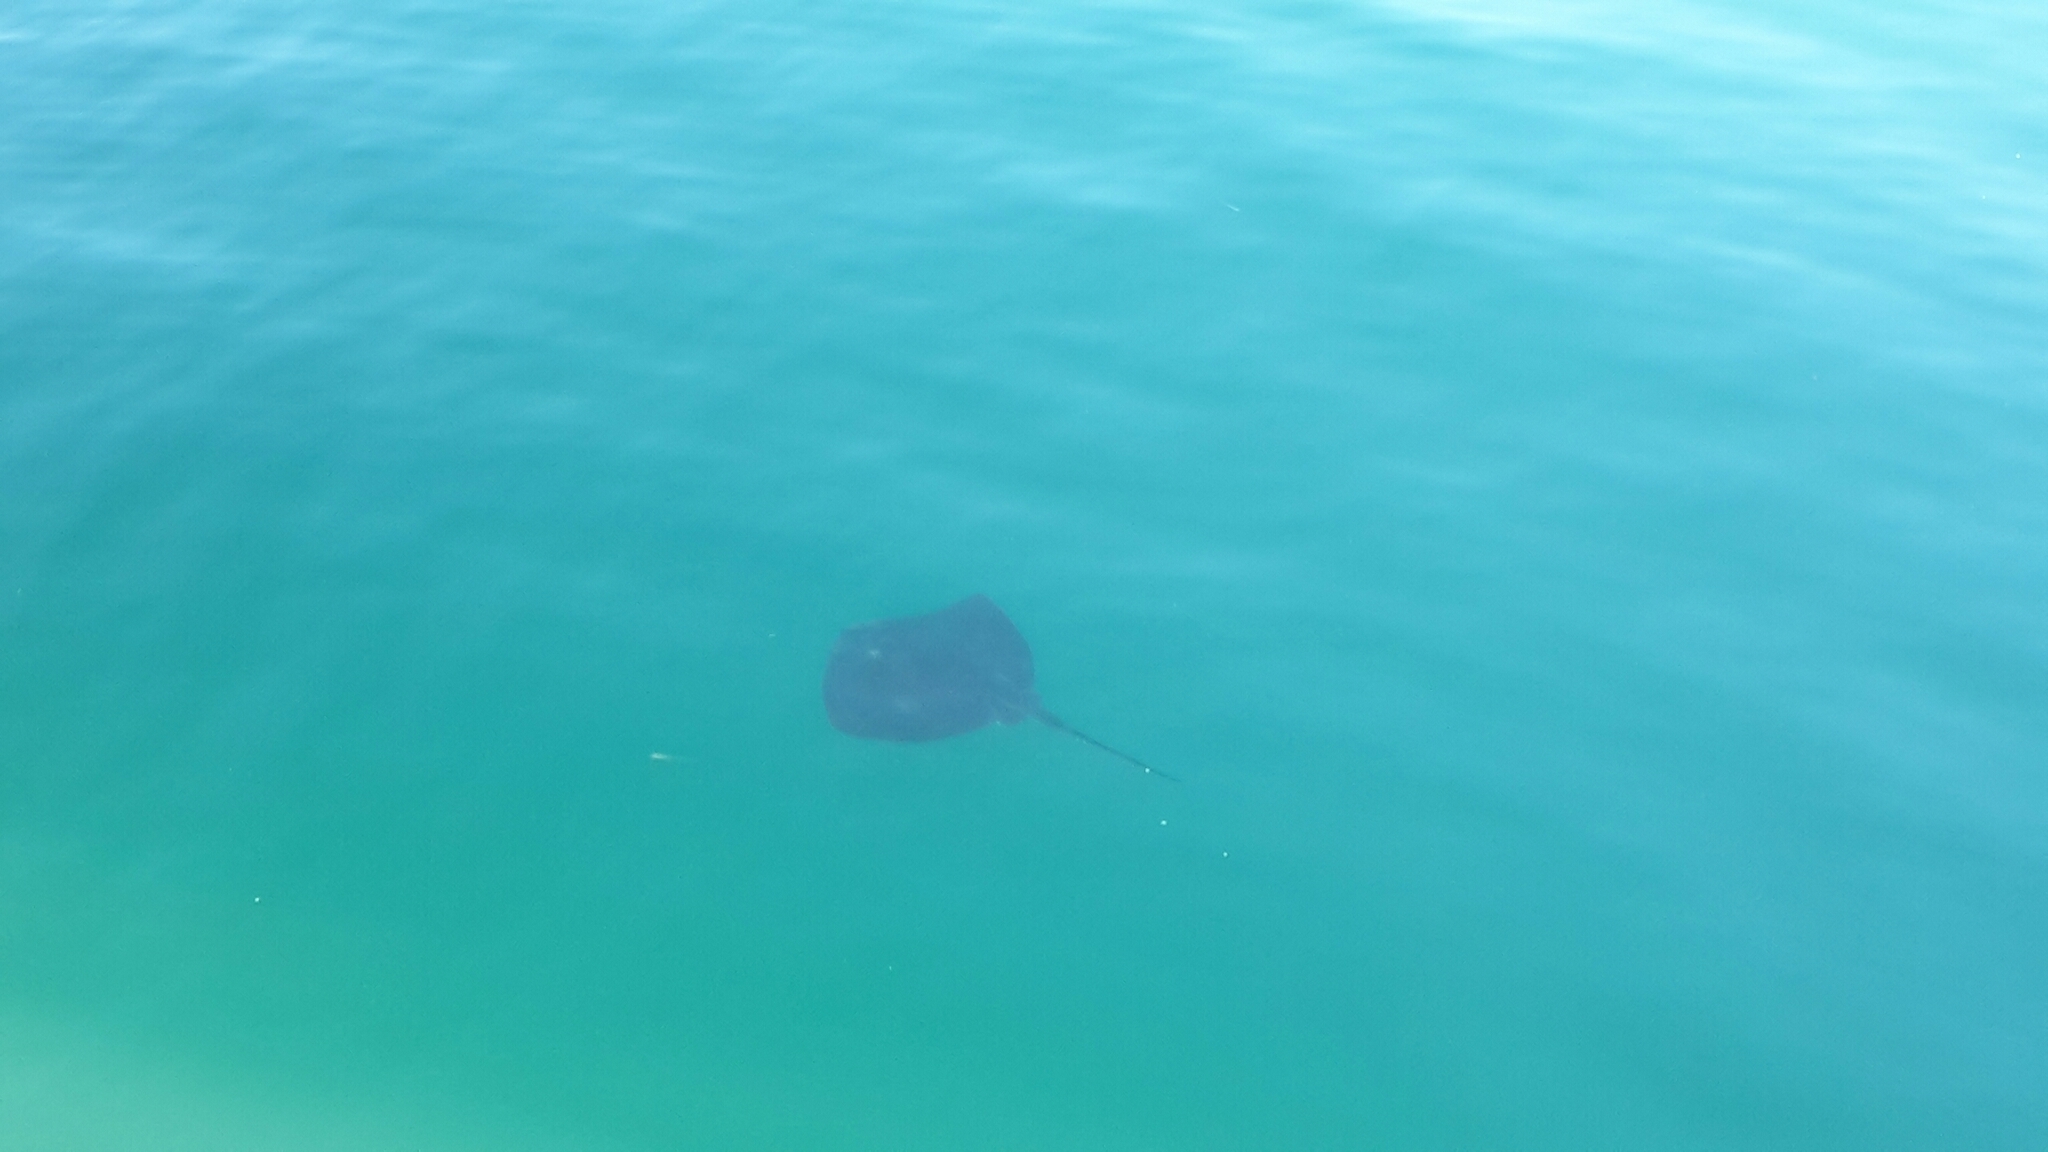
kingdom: Animalia
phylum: Chordata
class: Elasmobranchii
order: Myliobatiformes
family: Dasyatidae
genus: Bathytoshia
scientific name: Bathytoshia brevicaudata
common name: Short-tail stingray
